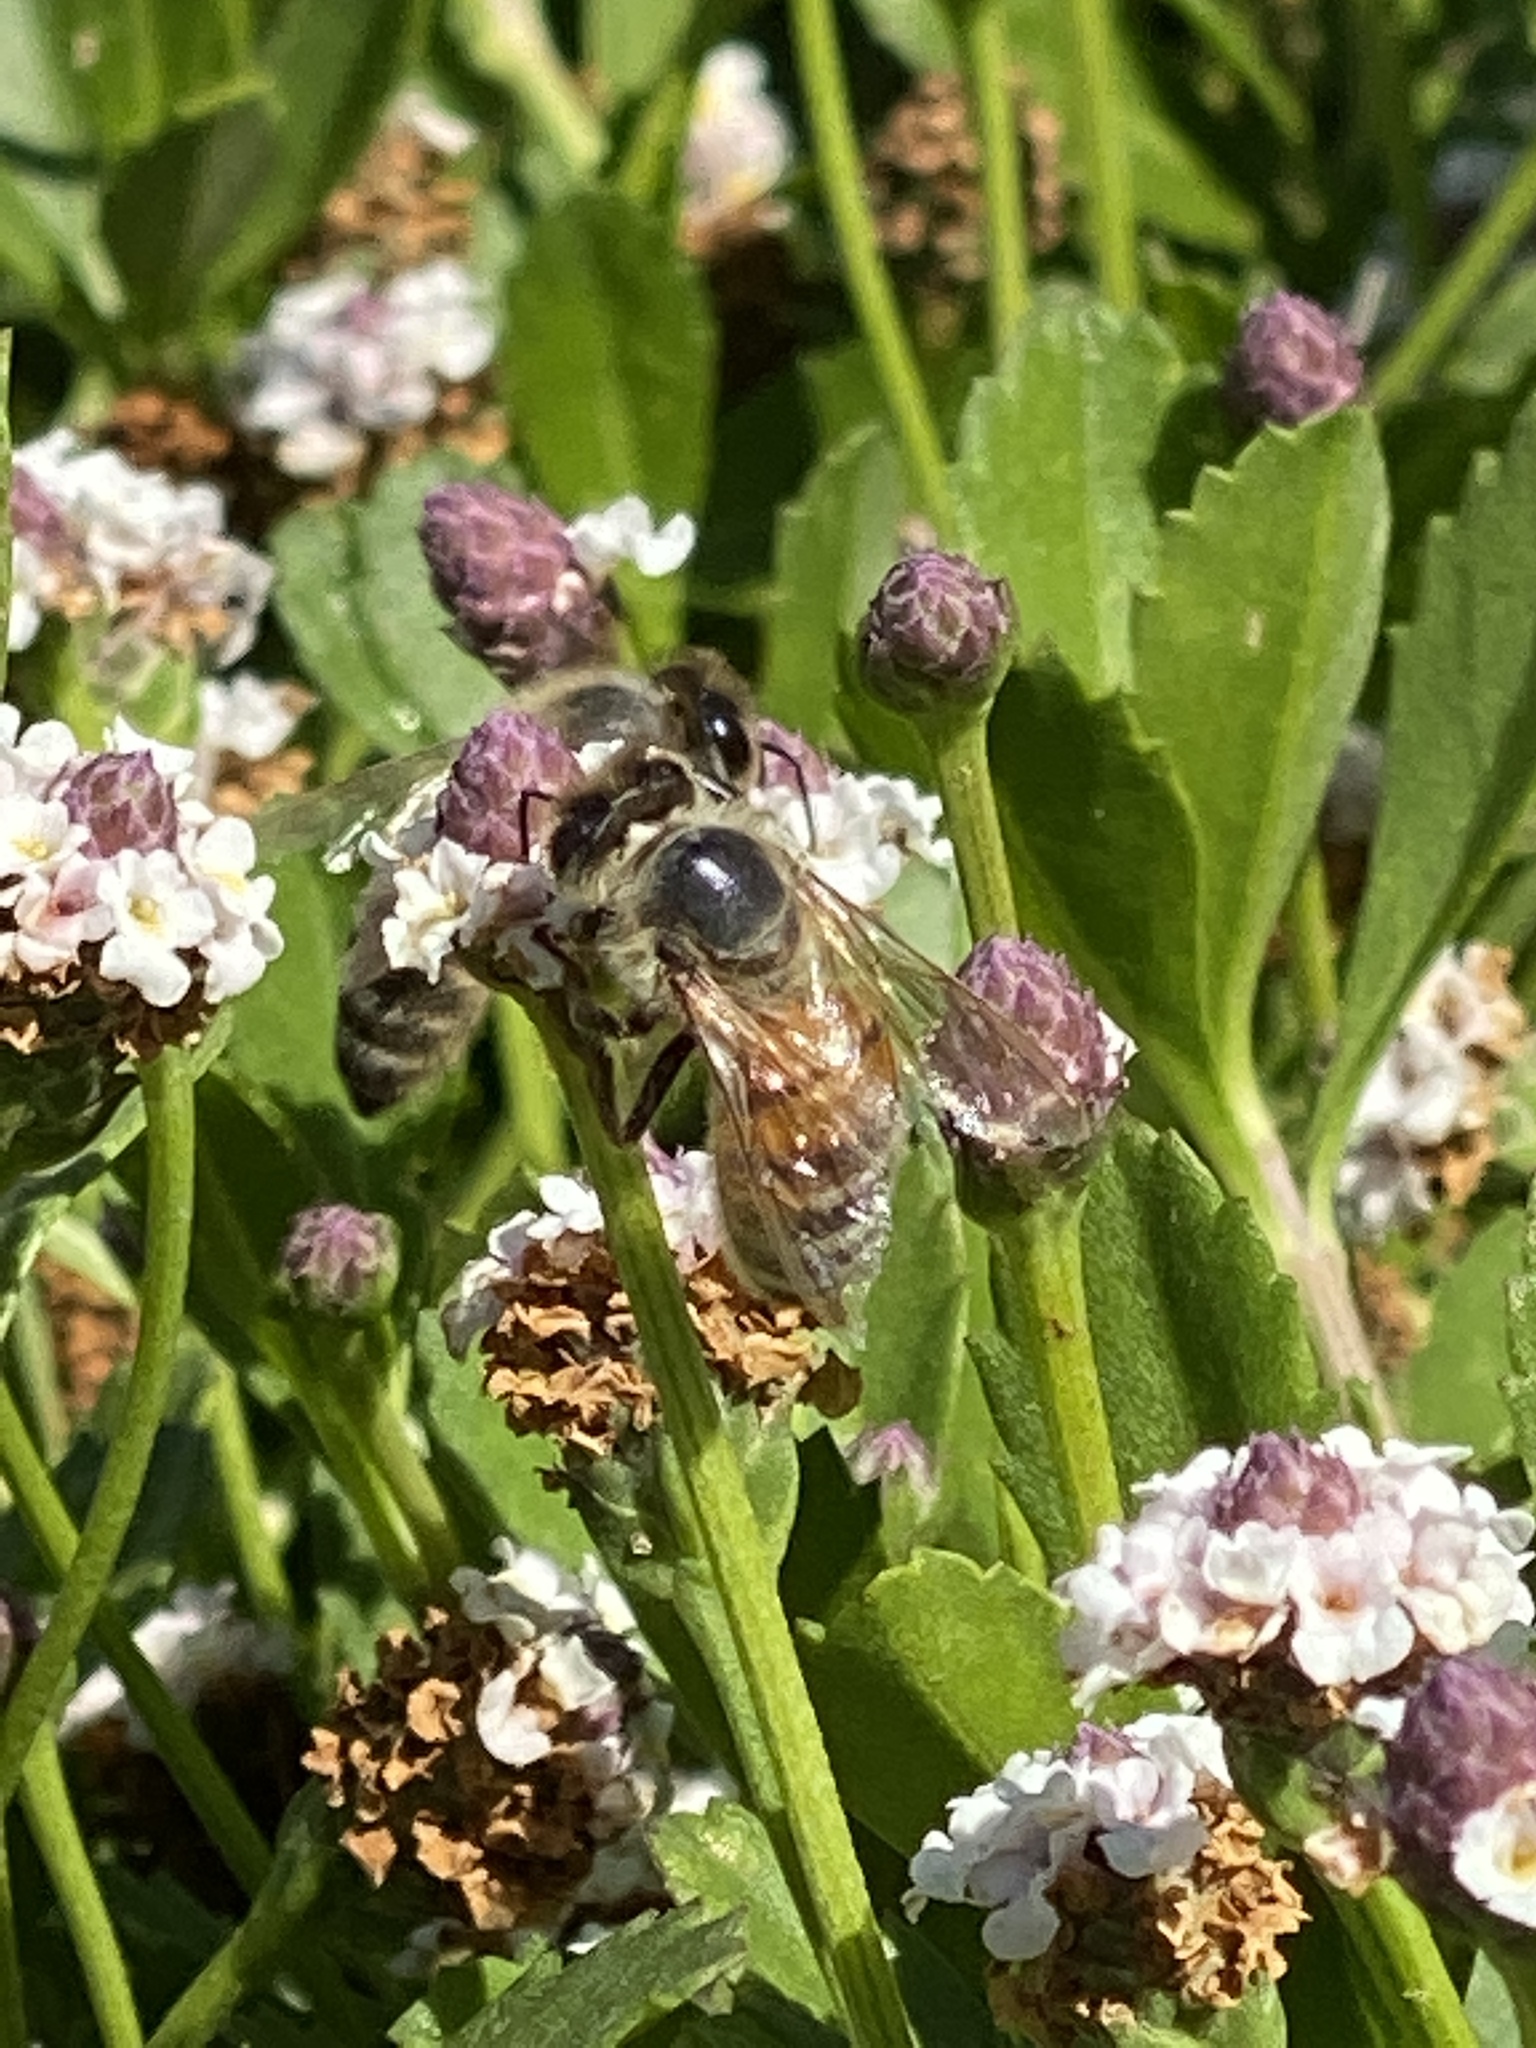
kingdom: Animalia
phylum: Arthropoda
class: Insecta
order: Hymenoptera
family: Apidae
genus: Apis
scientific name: Apis mellifera
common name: Honey bee
